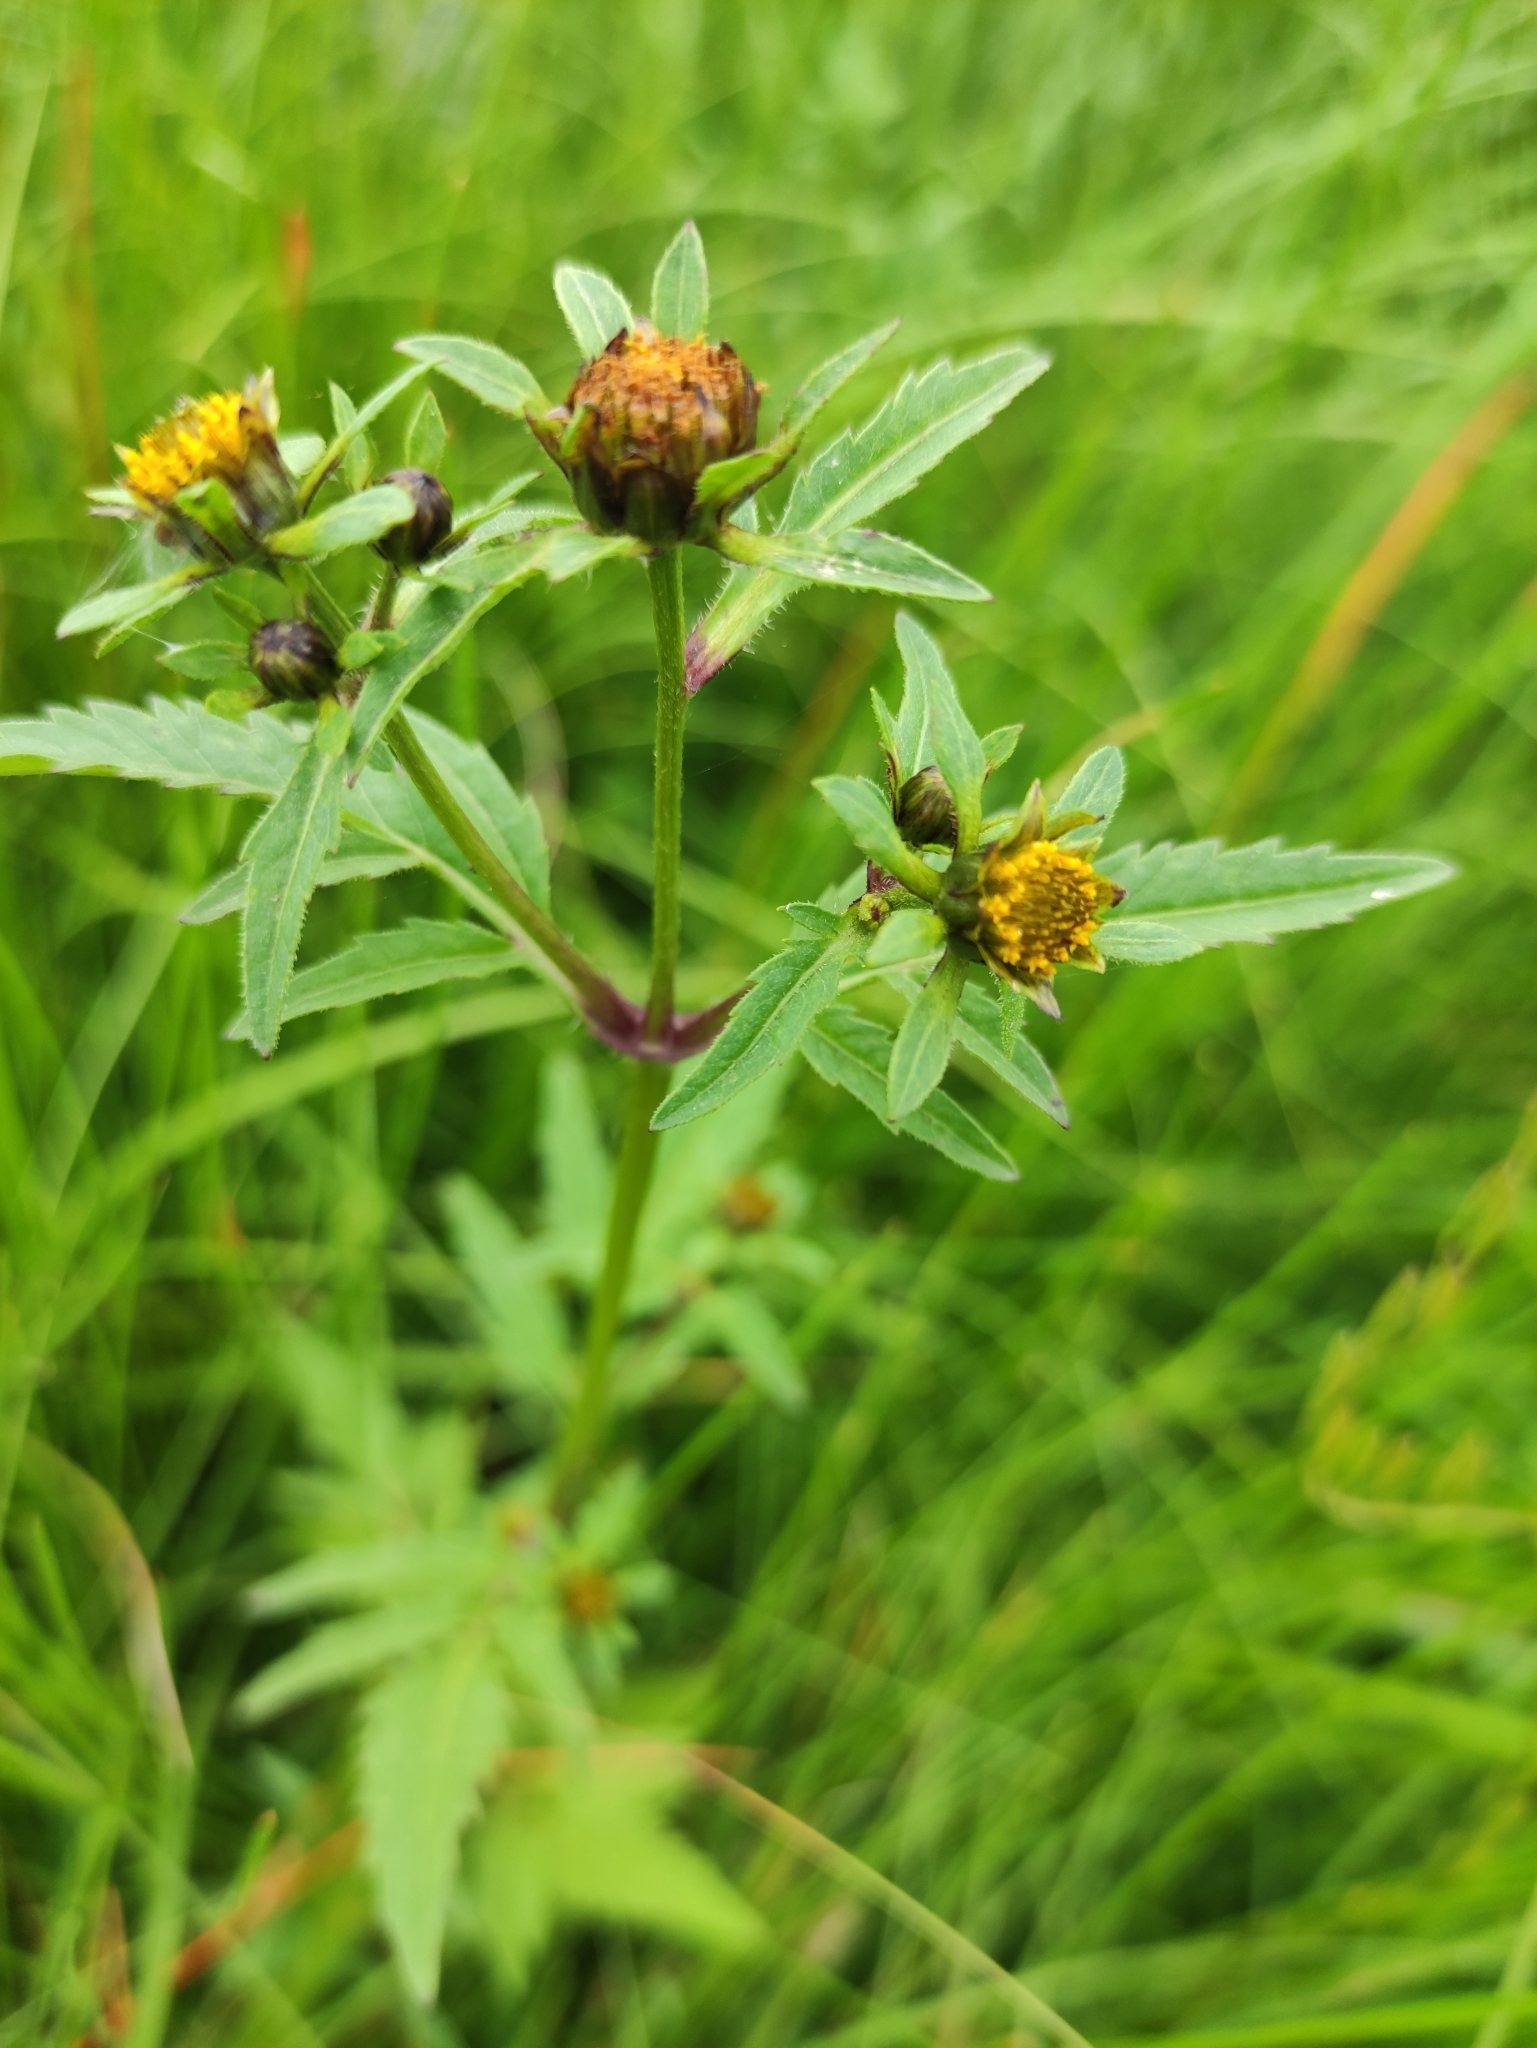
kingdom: Plantae
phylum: Tracheophyta
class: Magnoliopsida
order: Asterales
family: Asteraceae
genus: Bidens
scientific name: Bidens tripartita
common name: Trifid bur-marigold
